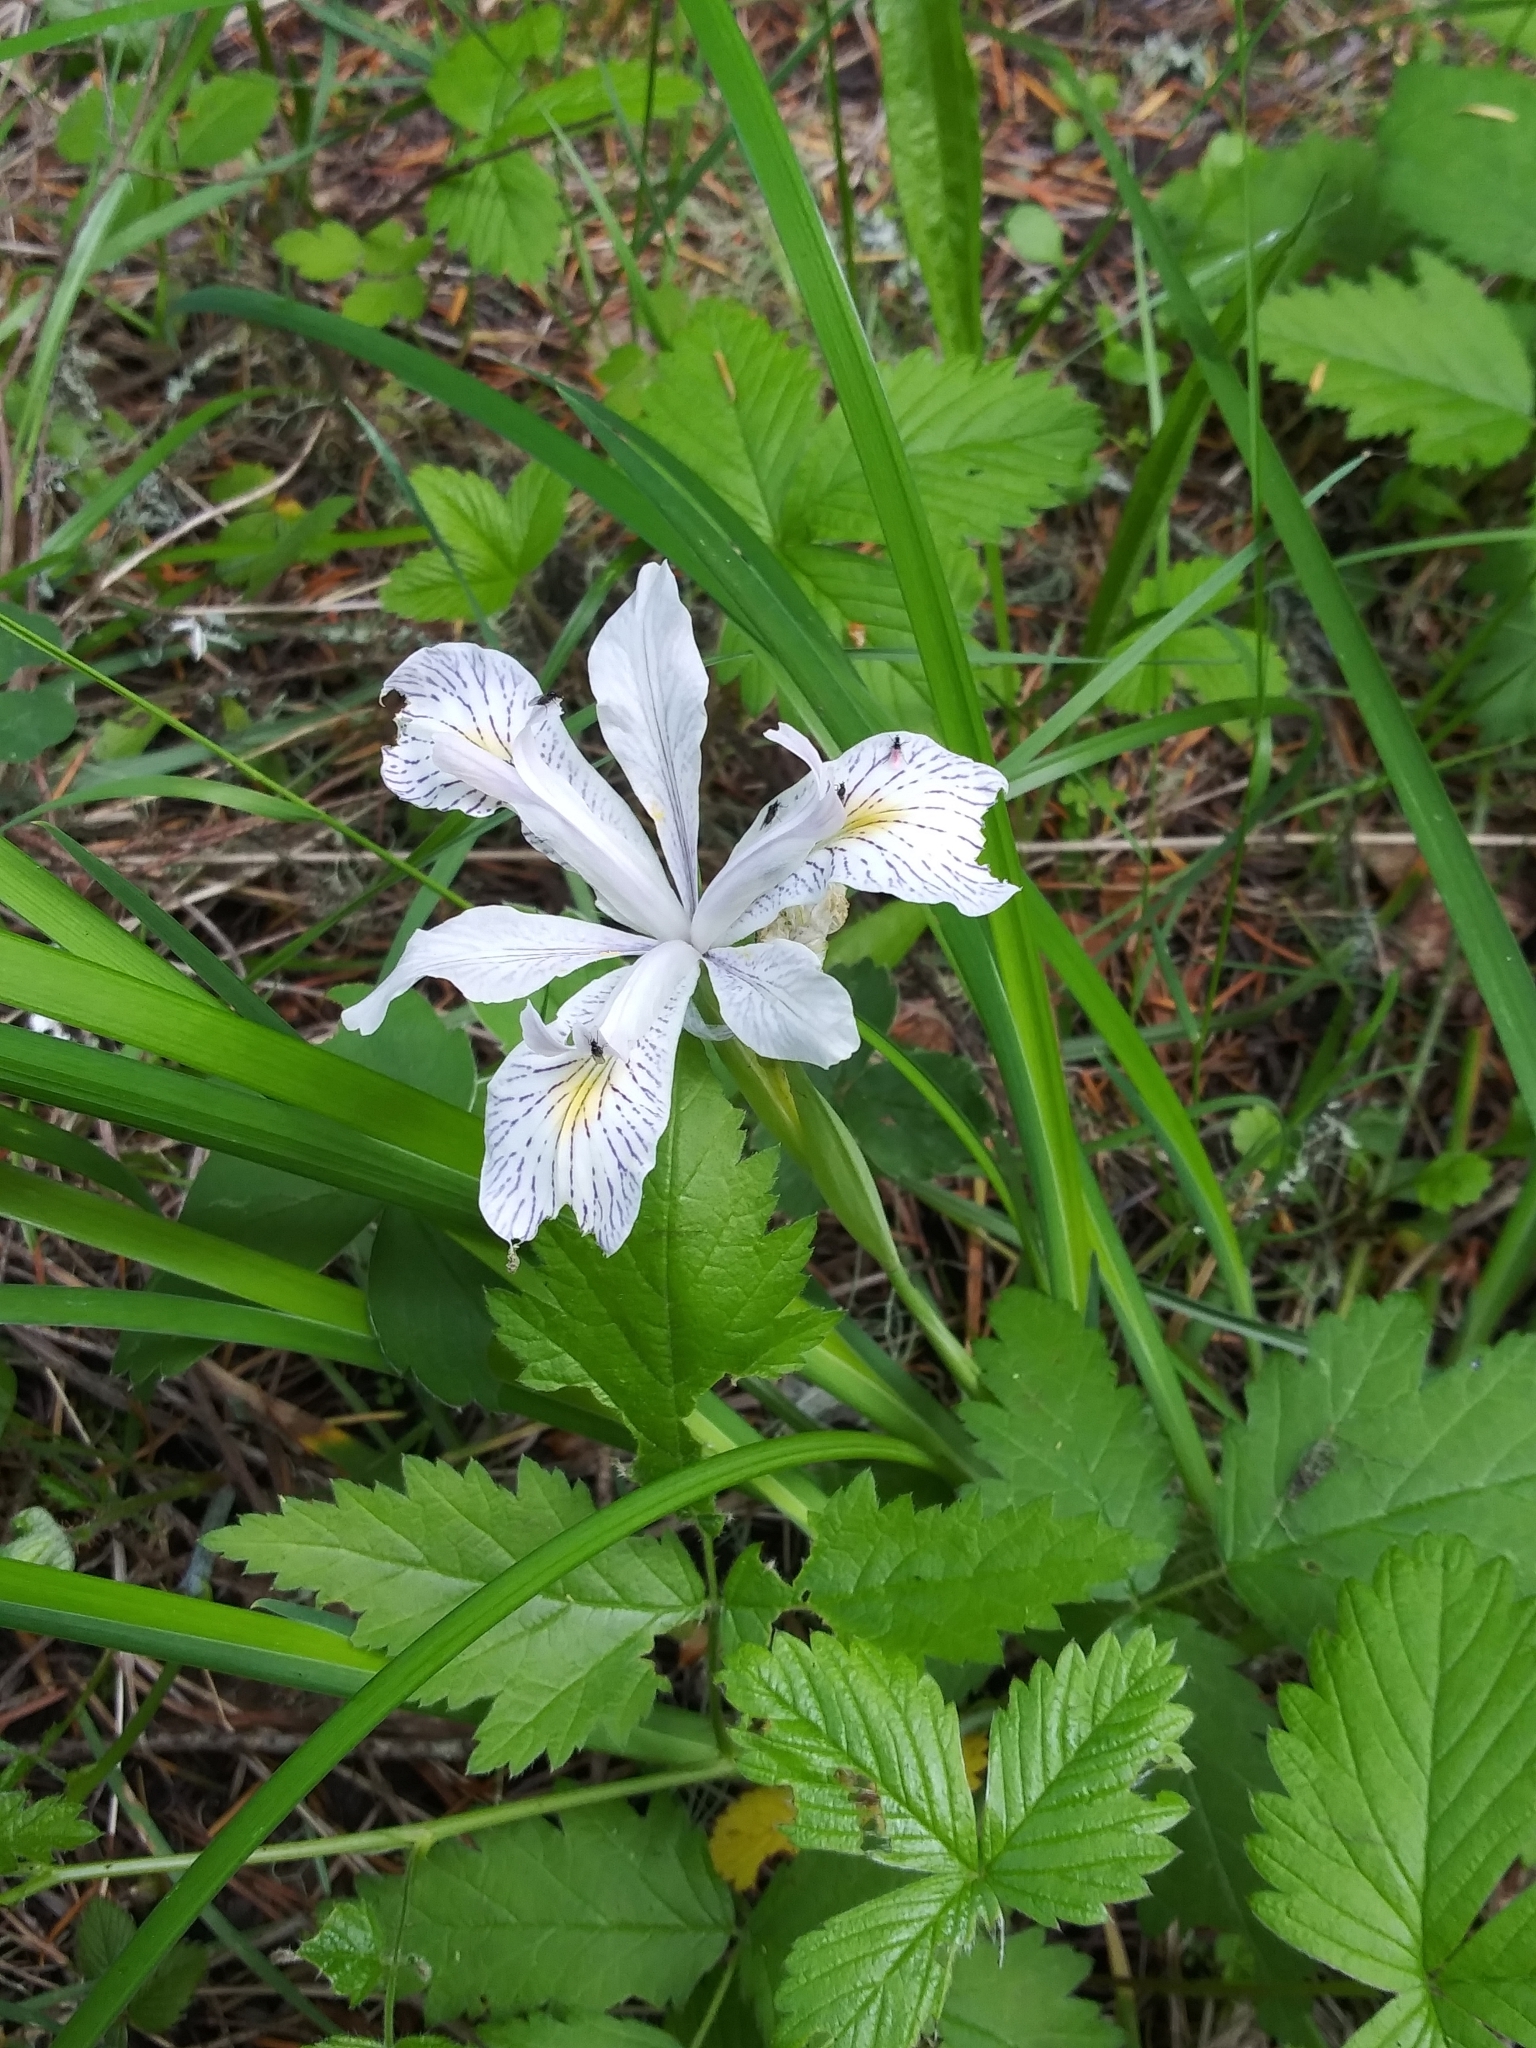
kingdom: Plantae
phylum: Tracheophyta
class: Liliopsida
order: Asparagales
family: Iridaceae
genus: Iris
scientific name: Iris tenax
